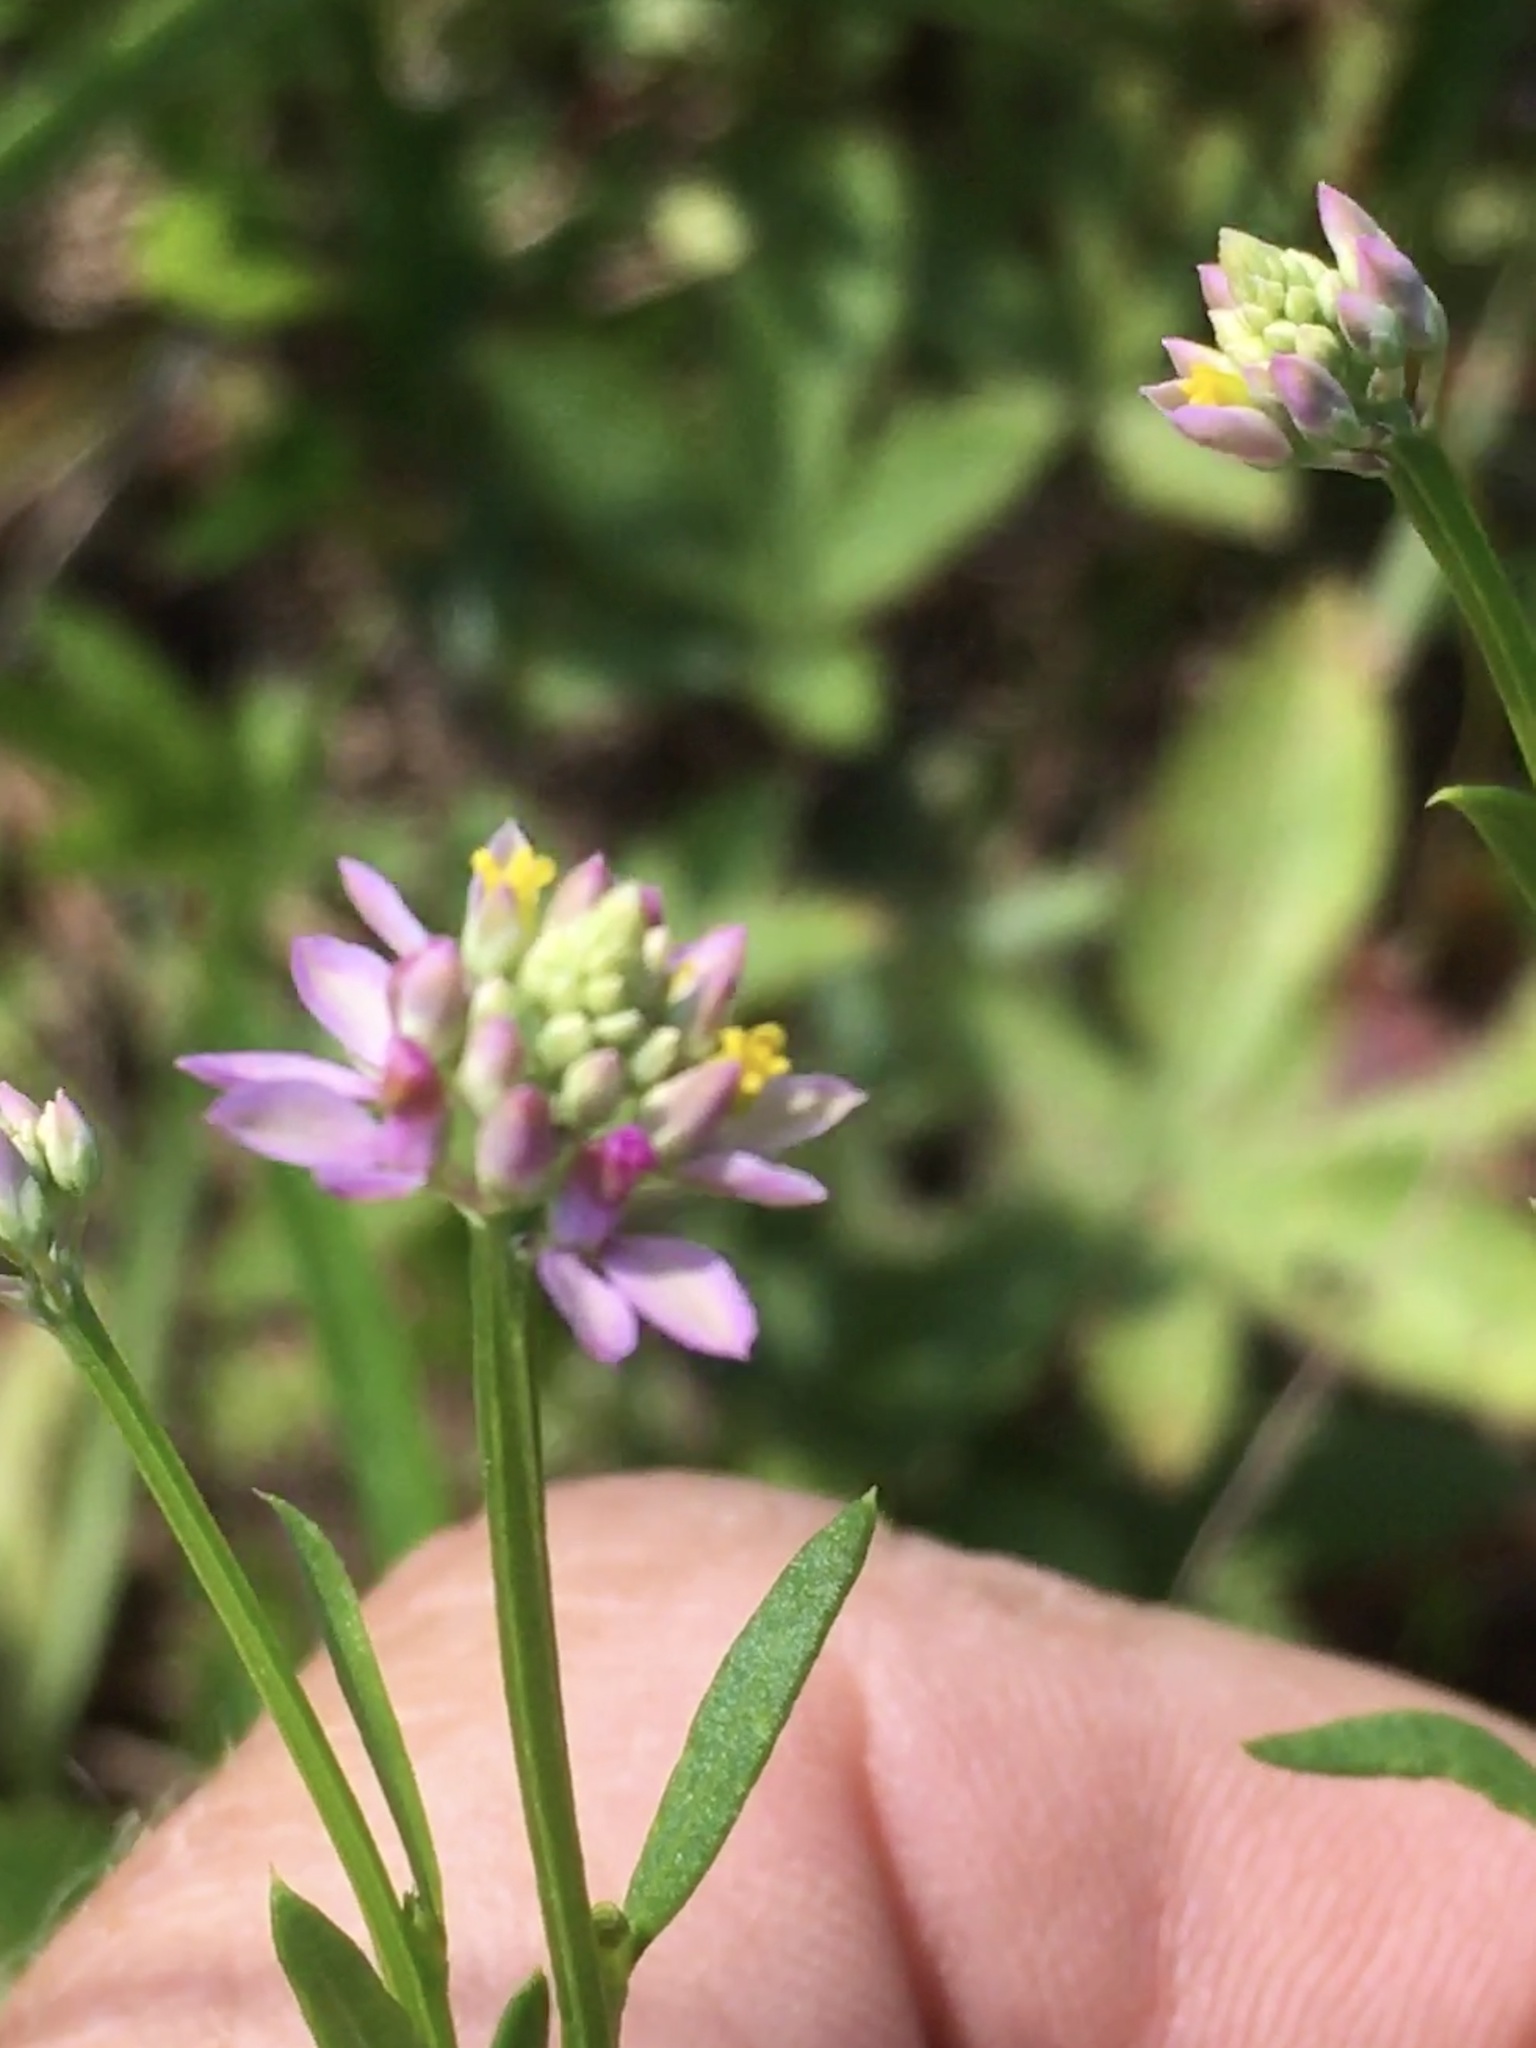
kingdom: Plantae
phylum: Tracheophyta
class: Magnoliopsida
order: Fabales
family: Polygalaceae
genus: Polygala
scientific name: Polygala curtissii
